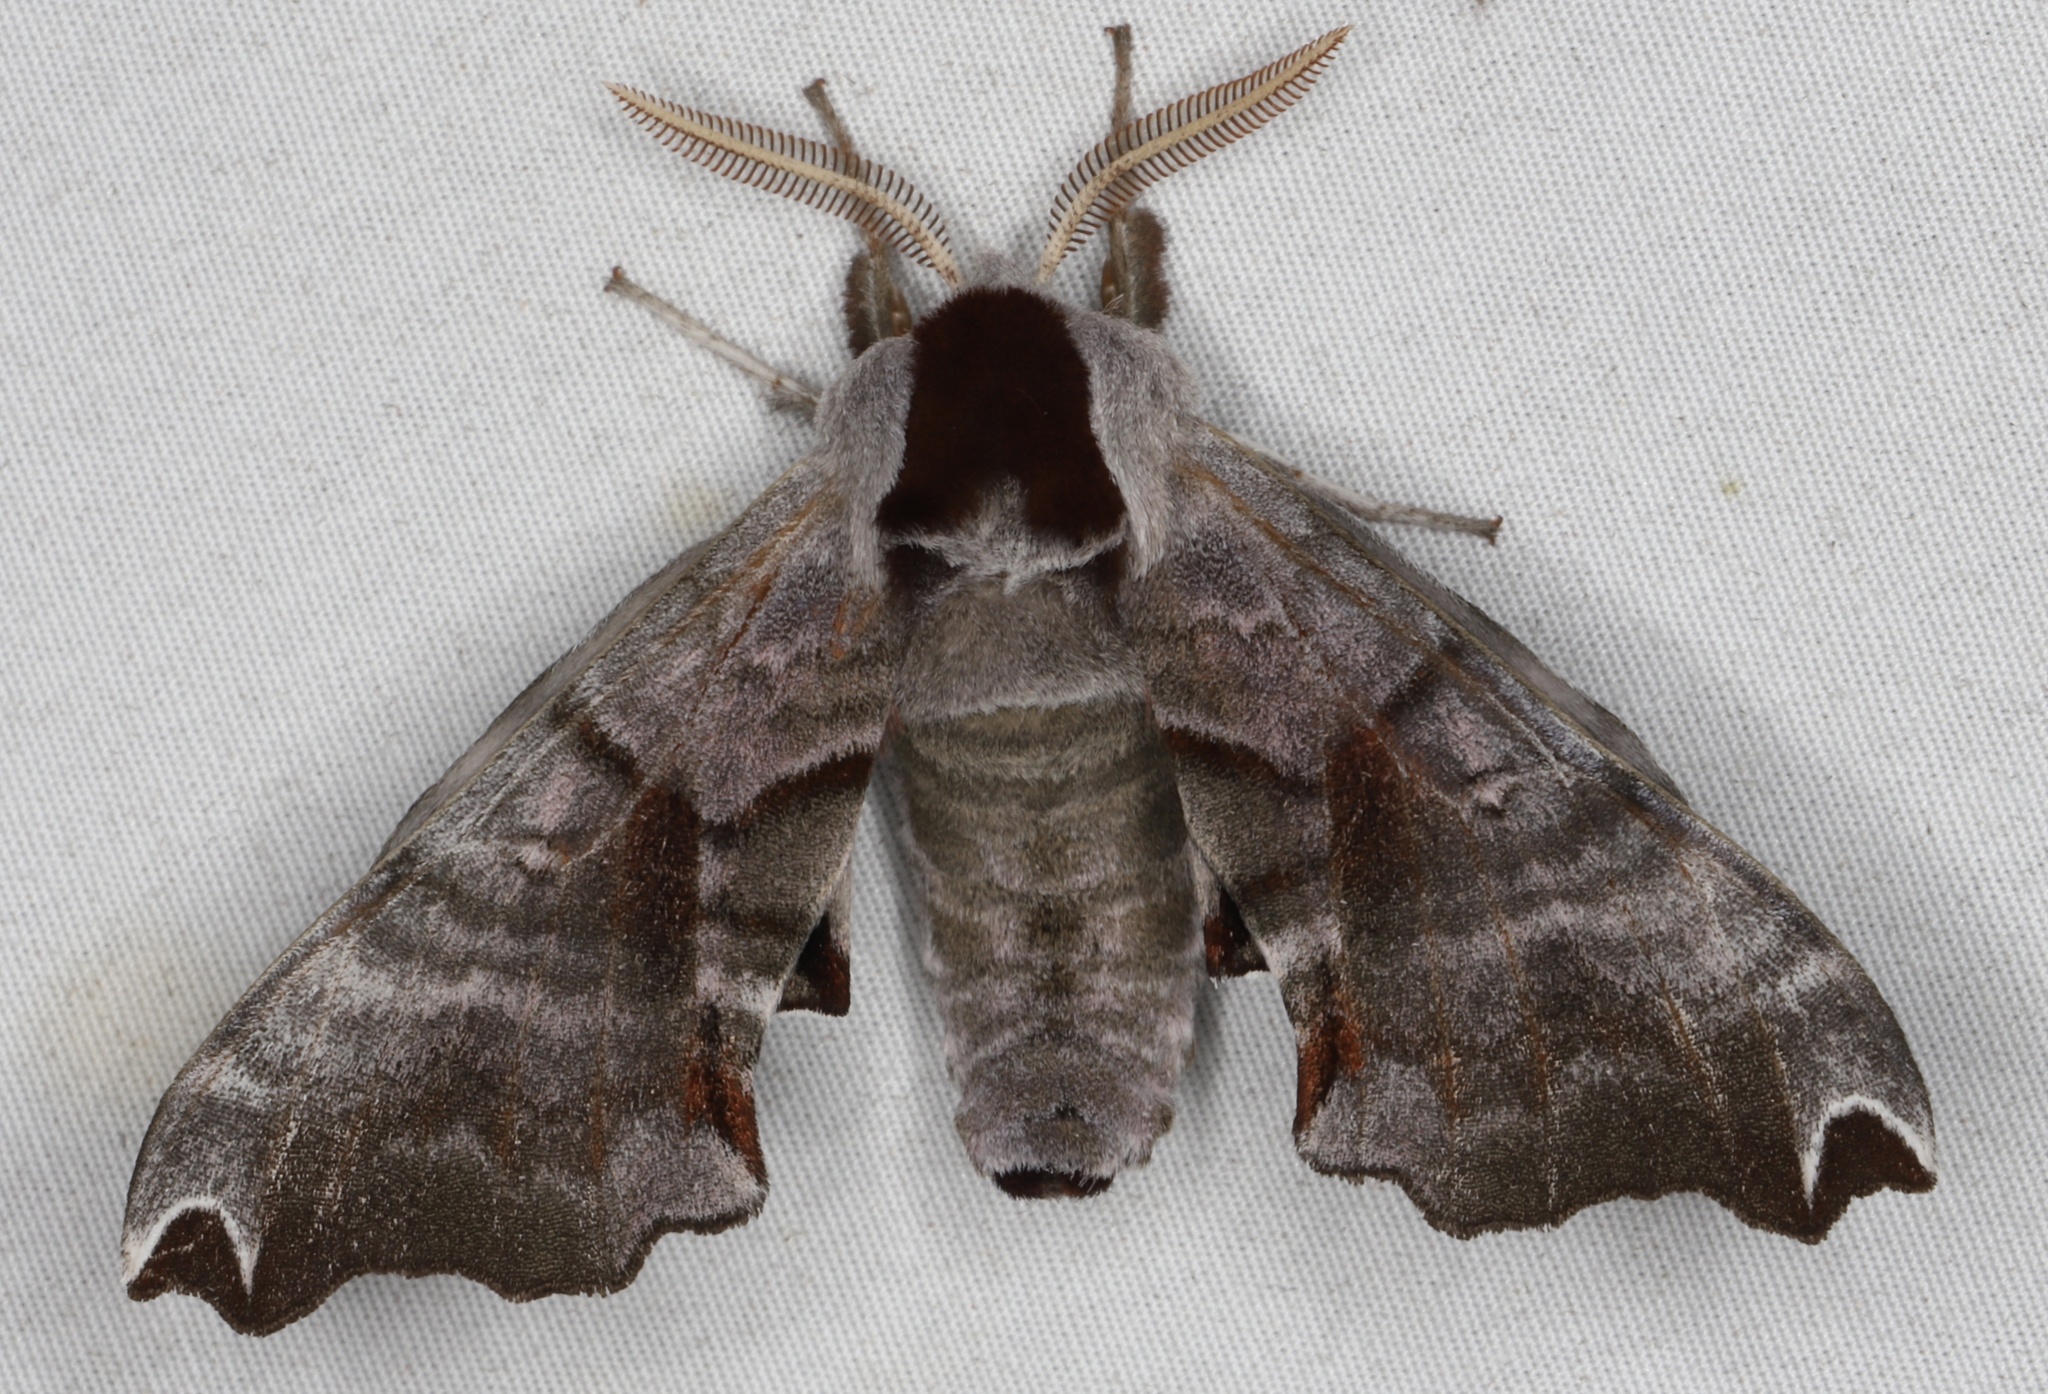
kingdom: Animalia
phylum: Arthropoda
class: Insecta
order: Lepidoptera
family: Sphingidae
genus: Smerinthus
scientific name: Smerinthus jamaicensis
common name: Twin spotted sphinx
